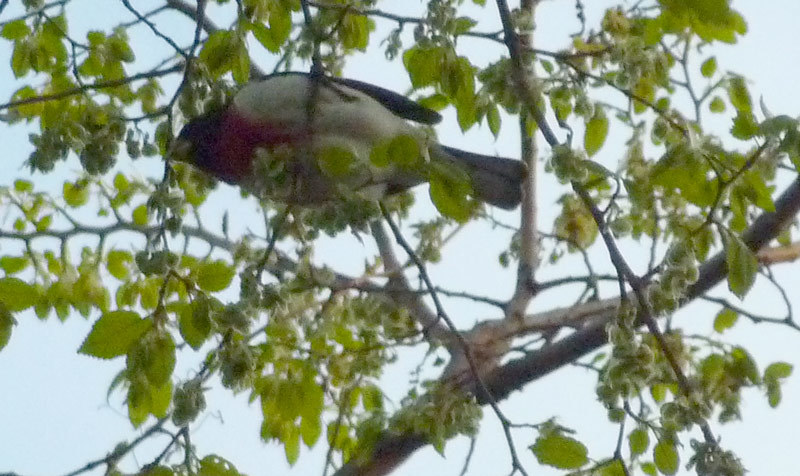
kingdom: Animalia
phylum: Chordata
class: Aves
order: Passeriformes
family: Cardinalidae
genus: Pheucticus
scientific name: Pheucticus ludovicianus
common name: Rose-breasted grosbeak
